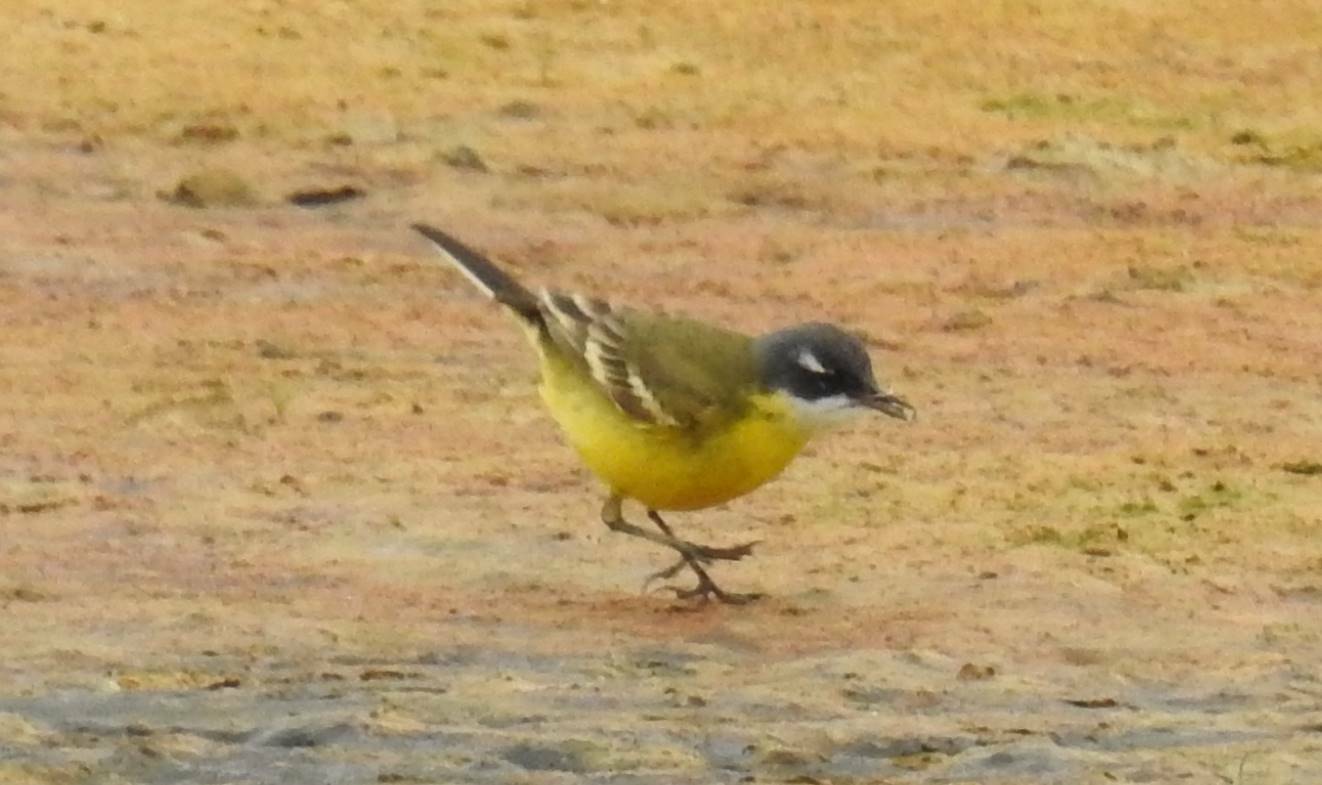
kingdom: Animalia
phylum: Chordata
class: Aves
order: Passeriformes
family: Motacillidae
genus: Motacilla
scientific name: Motacilla flava
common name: Western yellow wagtail
